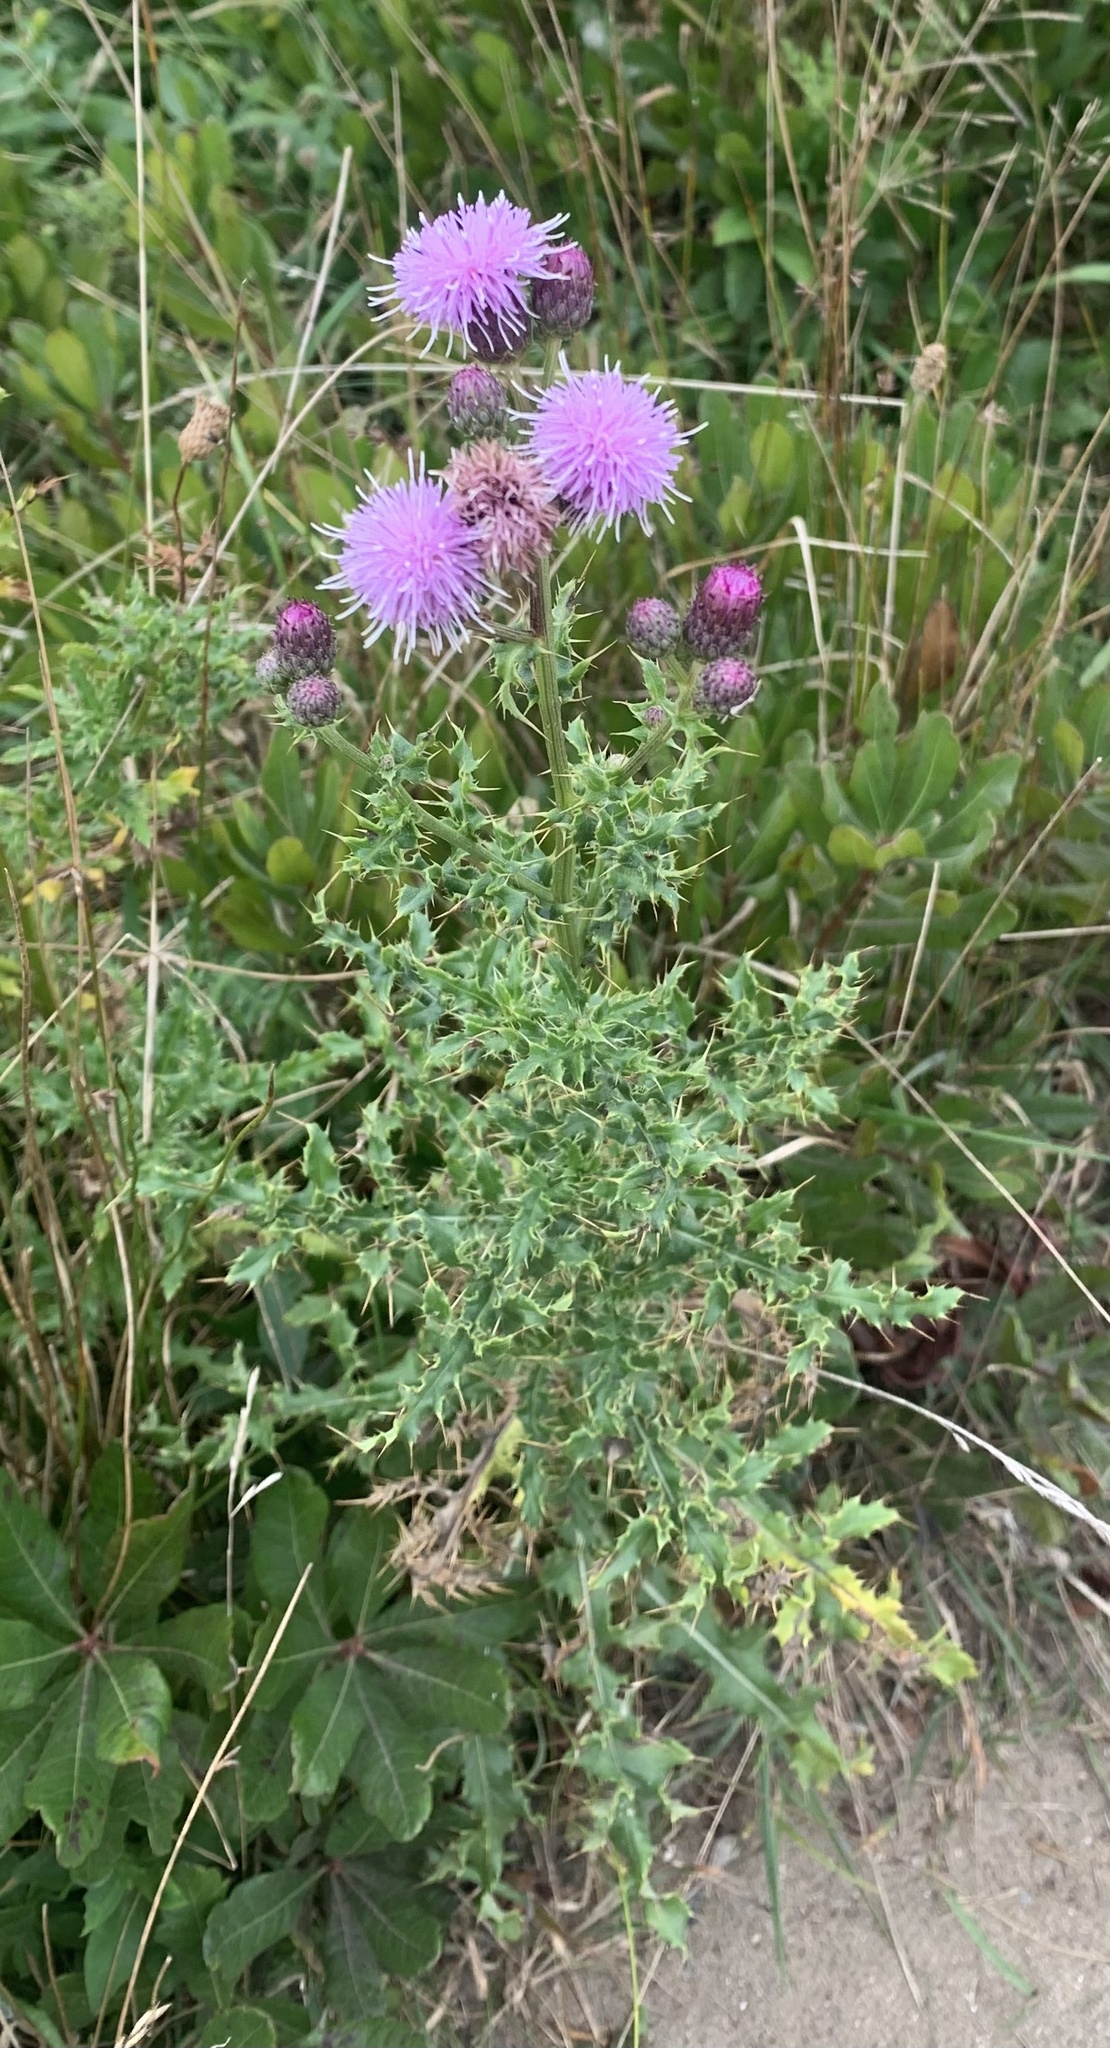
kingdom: Plantae
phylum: Tracheophyta
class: Magnoliopsida
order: Asterales
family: Asteraceae
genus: Cirsium
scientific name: Cirsium arvense
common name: Creeping thistle
